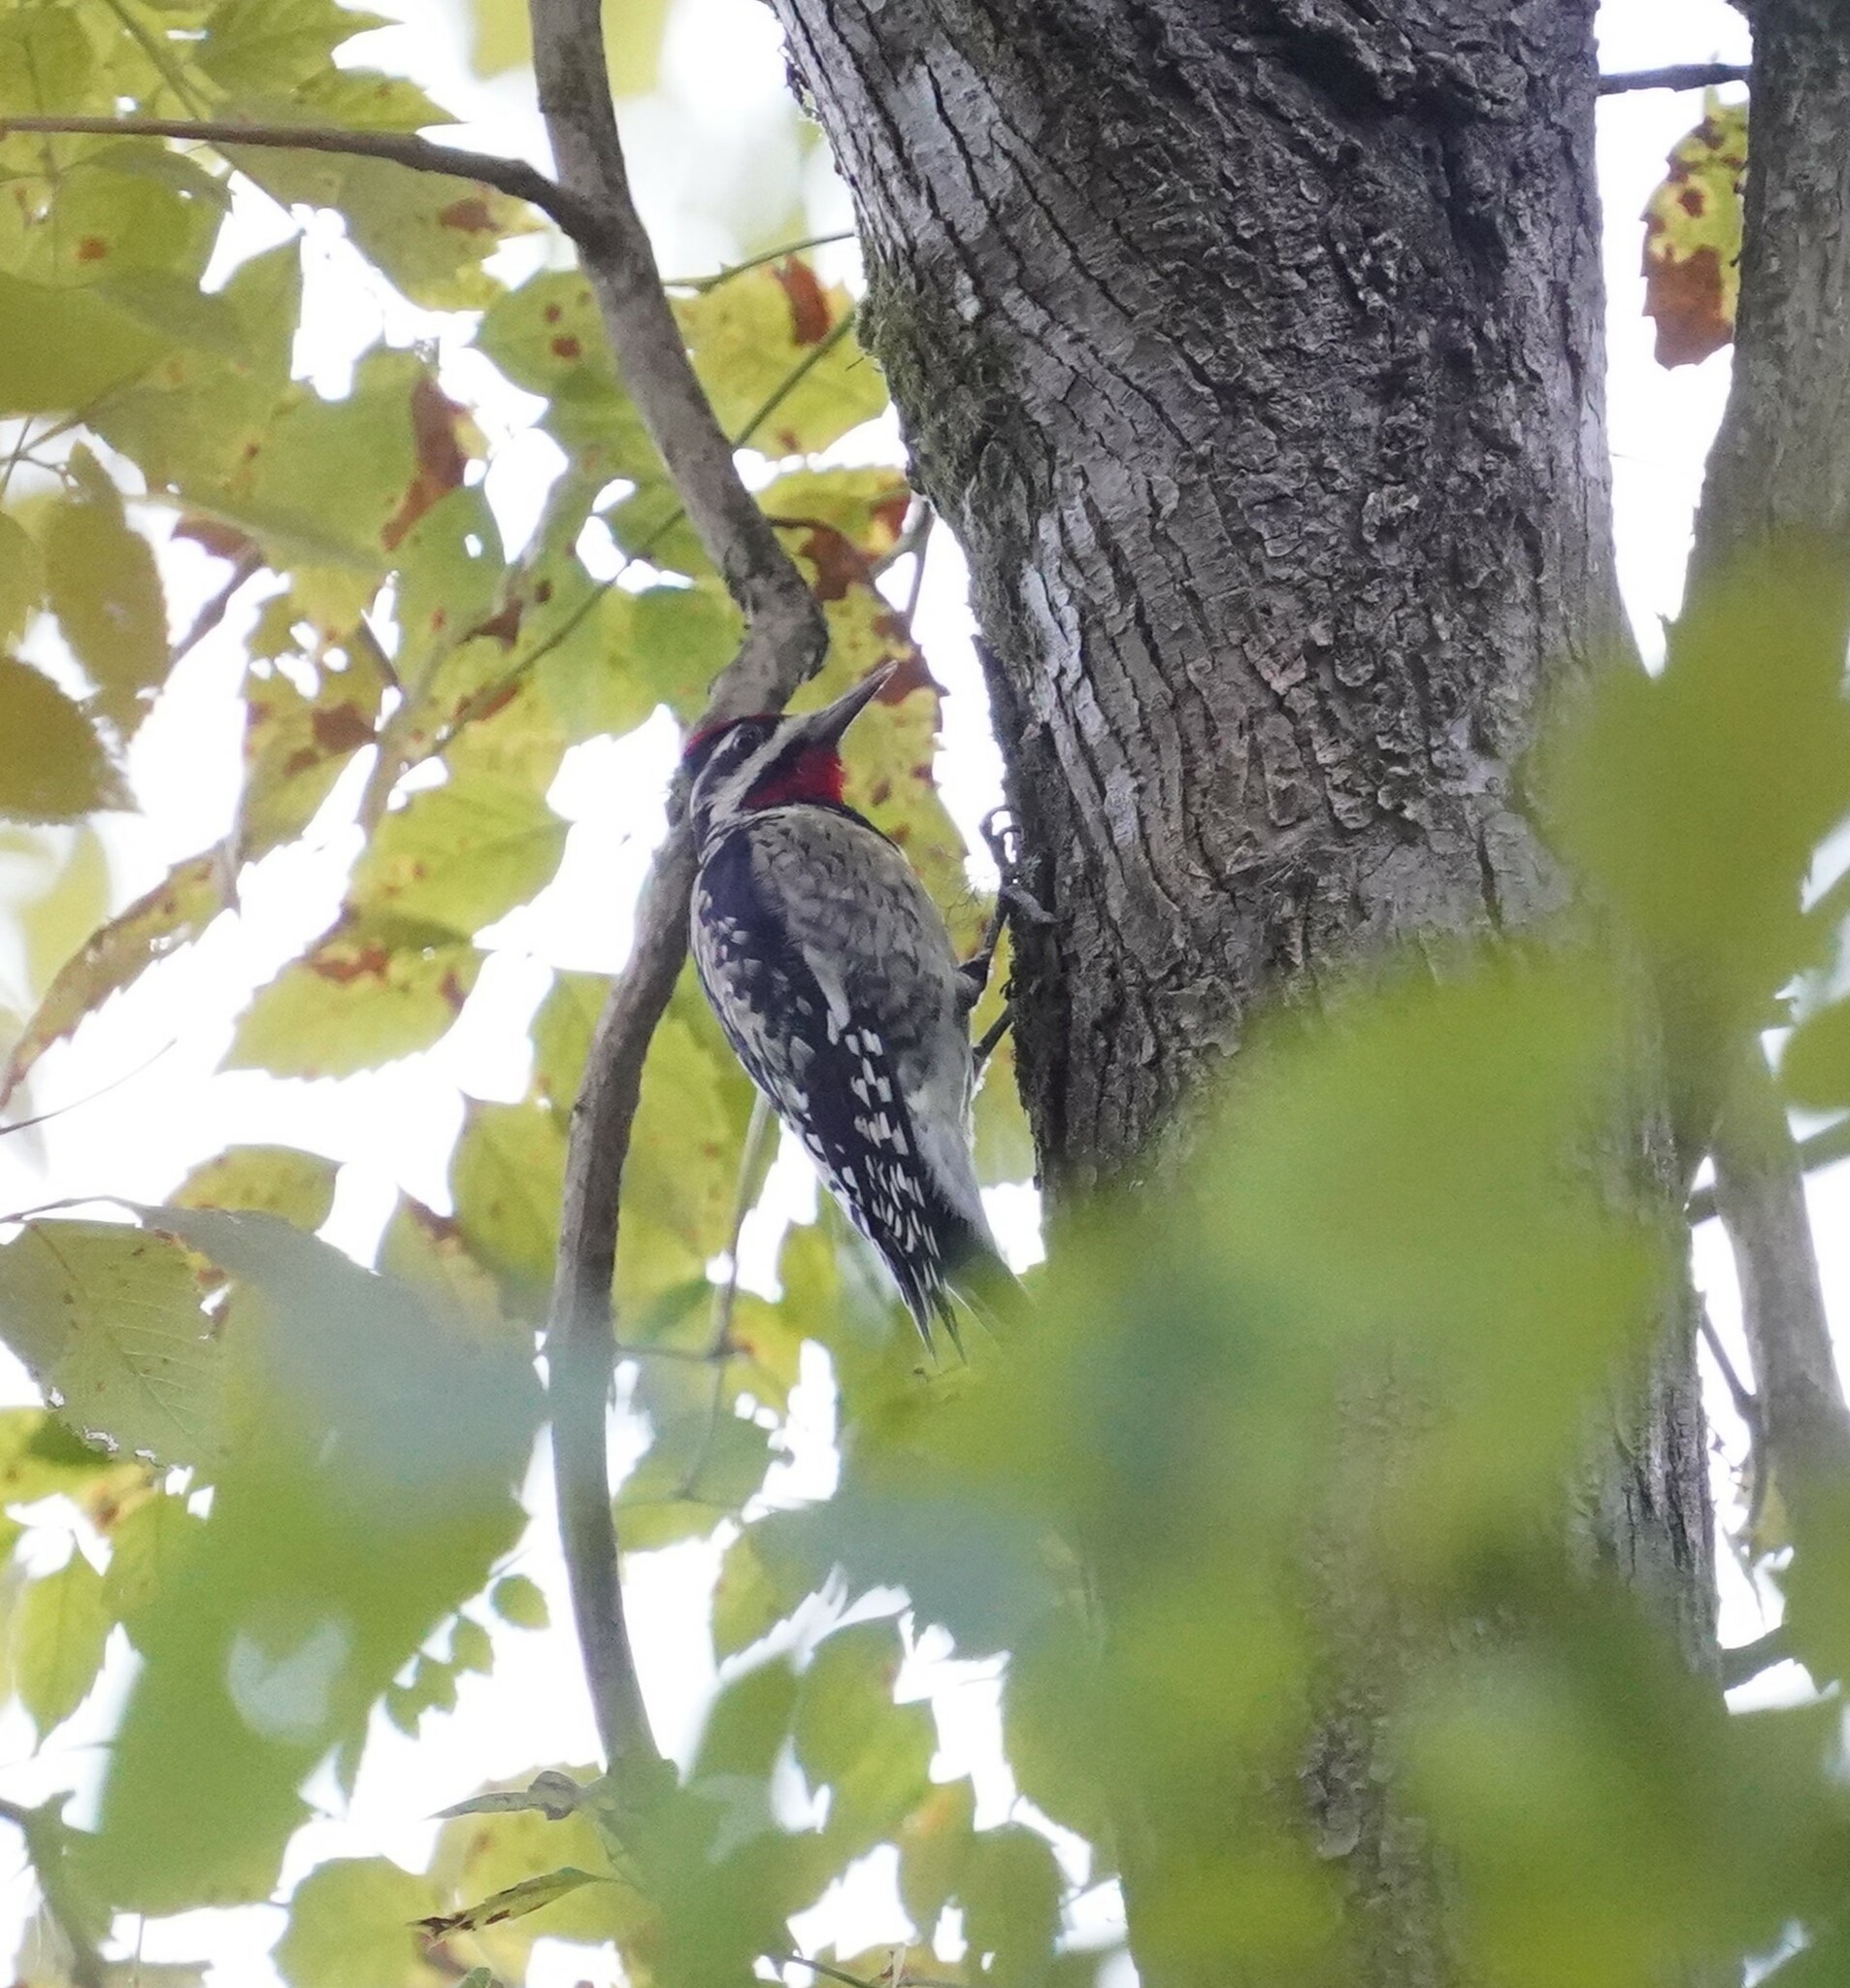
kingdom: Animalia
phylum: Chordata
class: Aves
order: Piciformes
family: Picidae
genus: Sphyrapicus
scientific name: Sphyrapicus varius
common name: Yellow-bellied sapsucker
